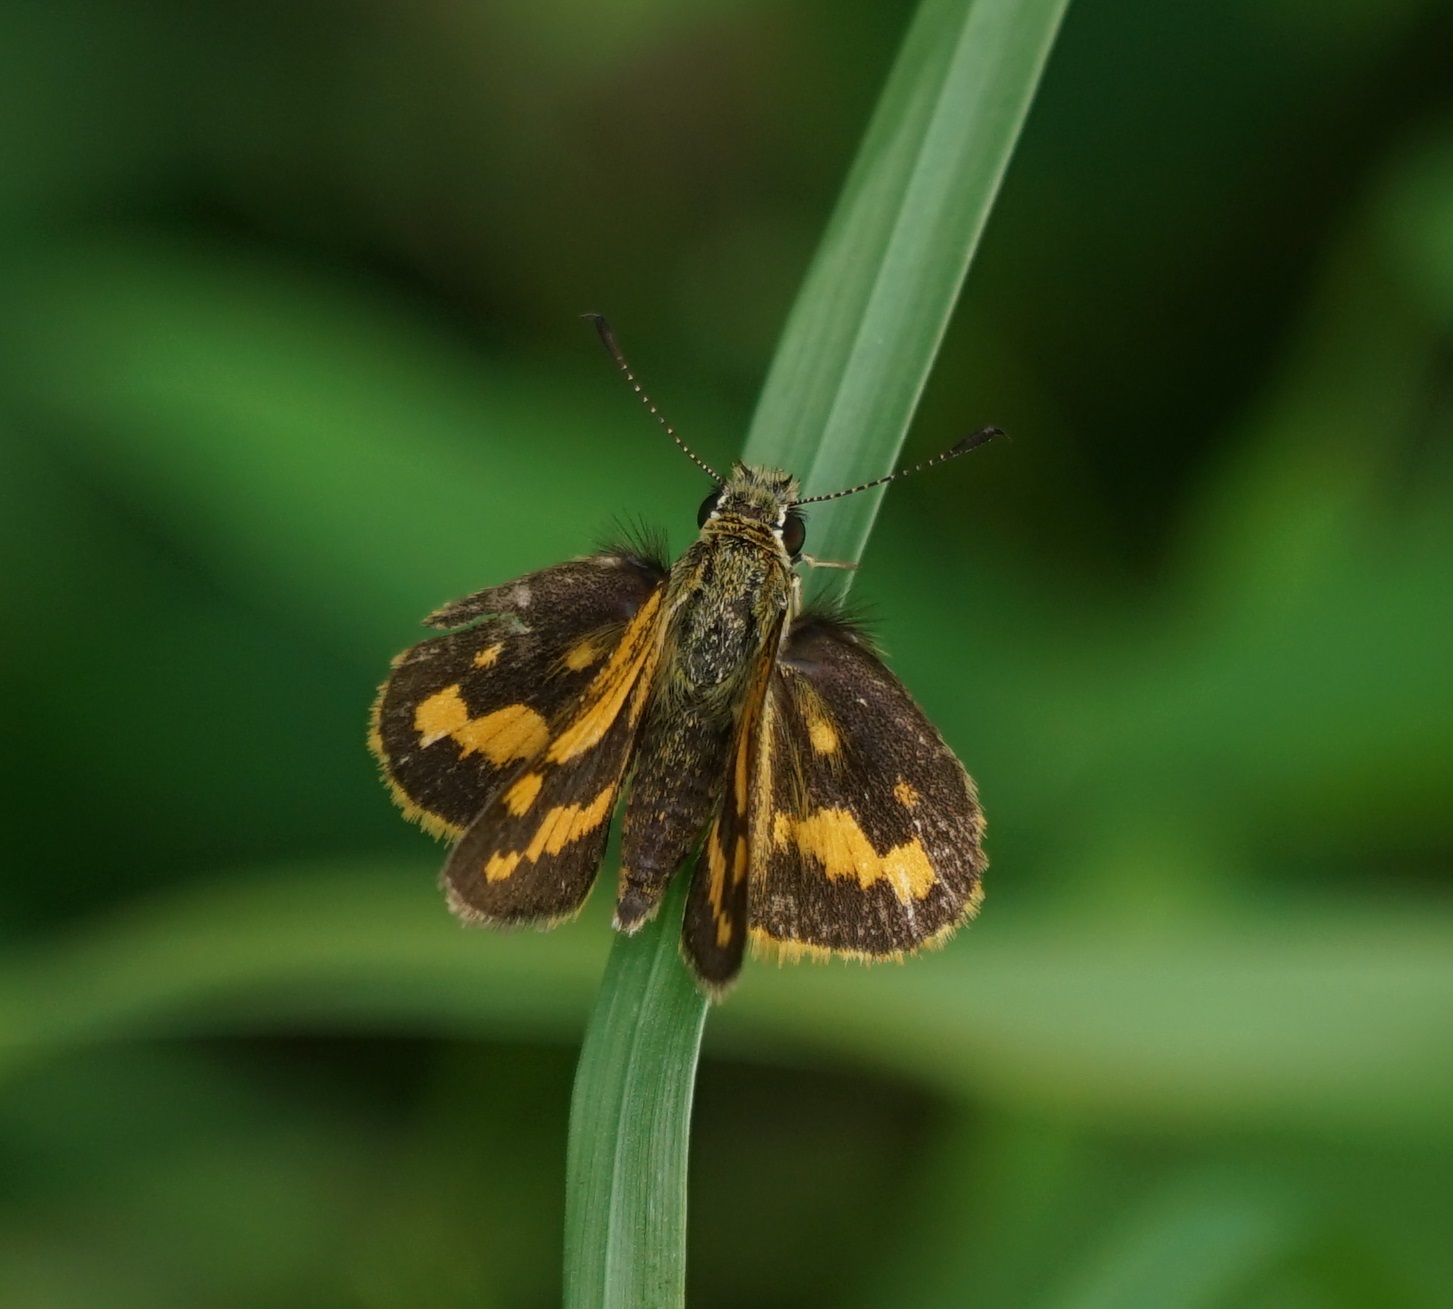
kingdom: Animalia
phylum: Arthropoda
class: Insecta
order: Lepidoptera
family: Hesperiidae
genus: Ocybadistes
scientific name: Ocybadistes walkeri
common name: Yellow-banded dart
